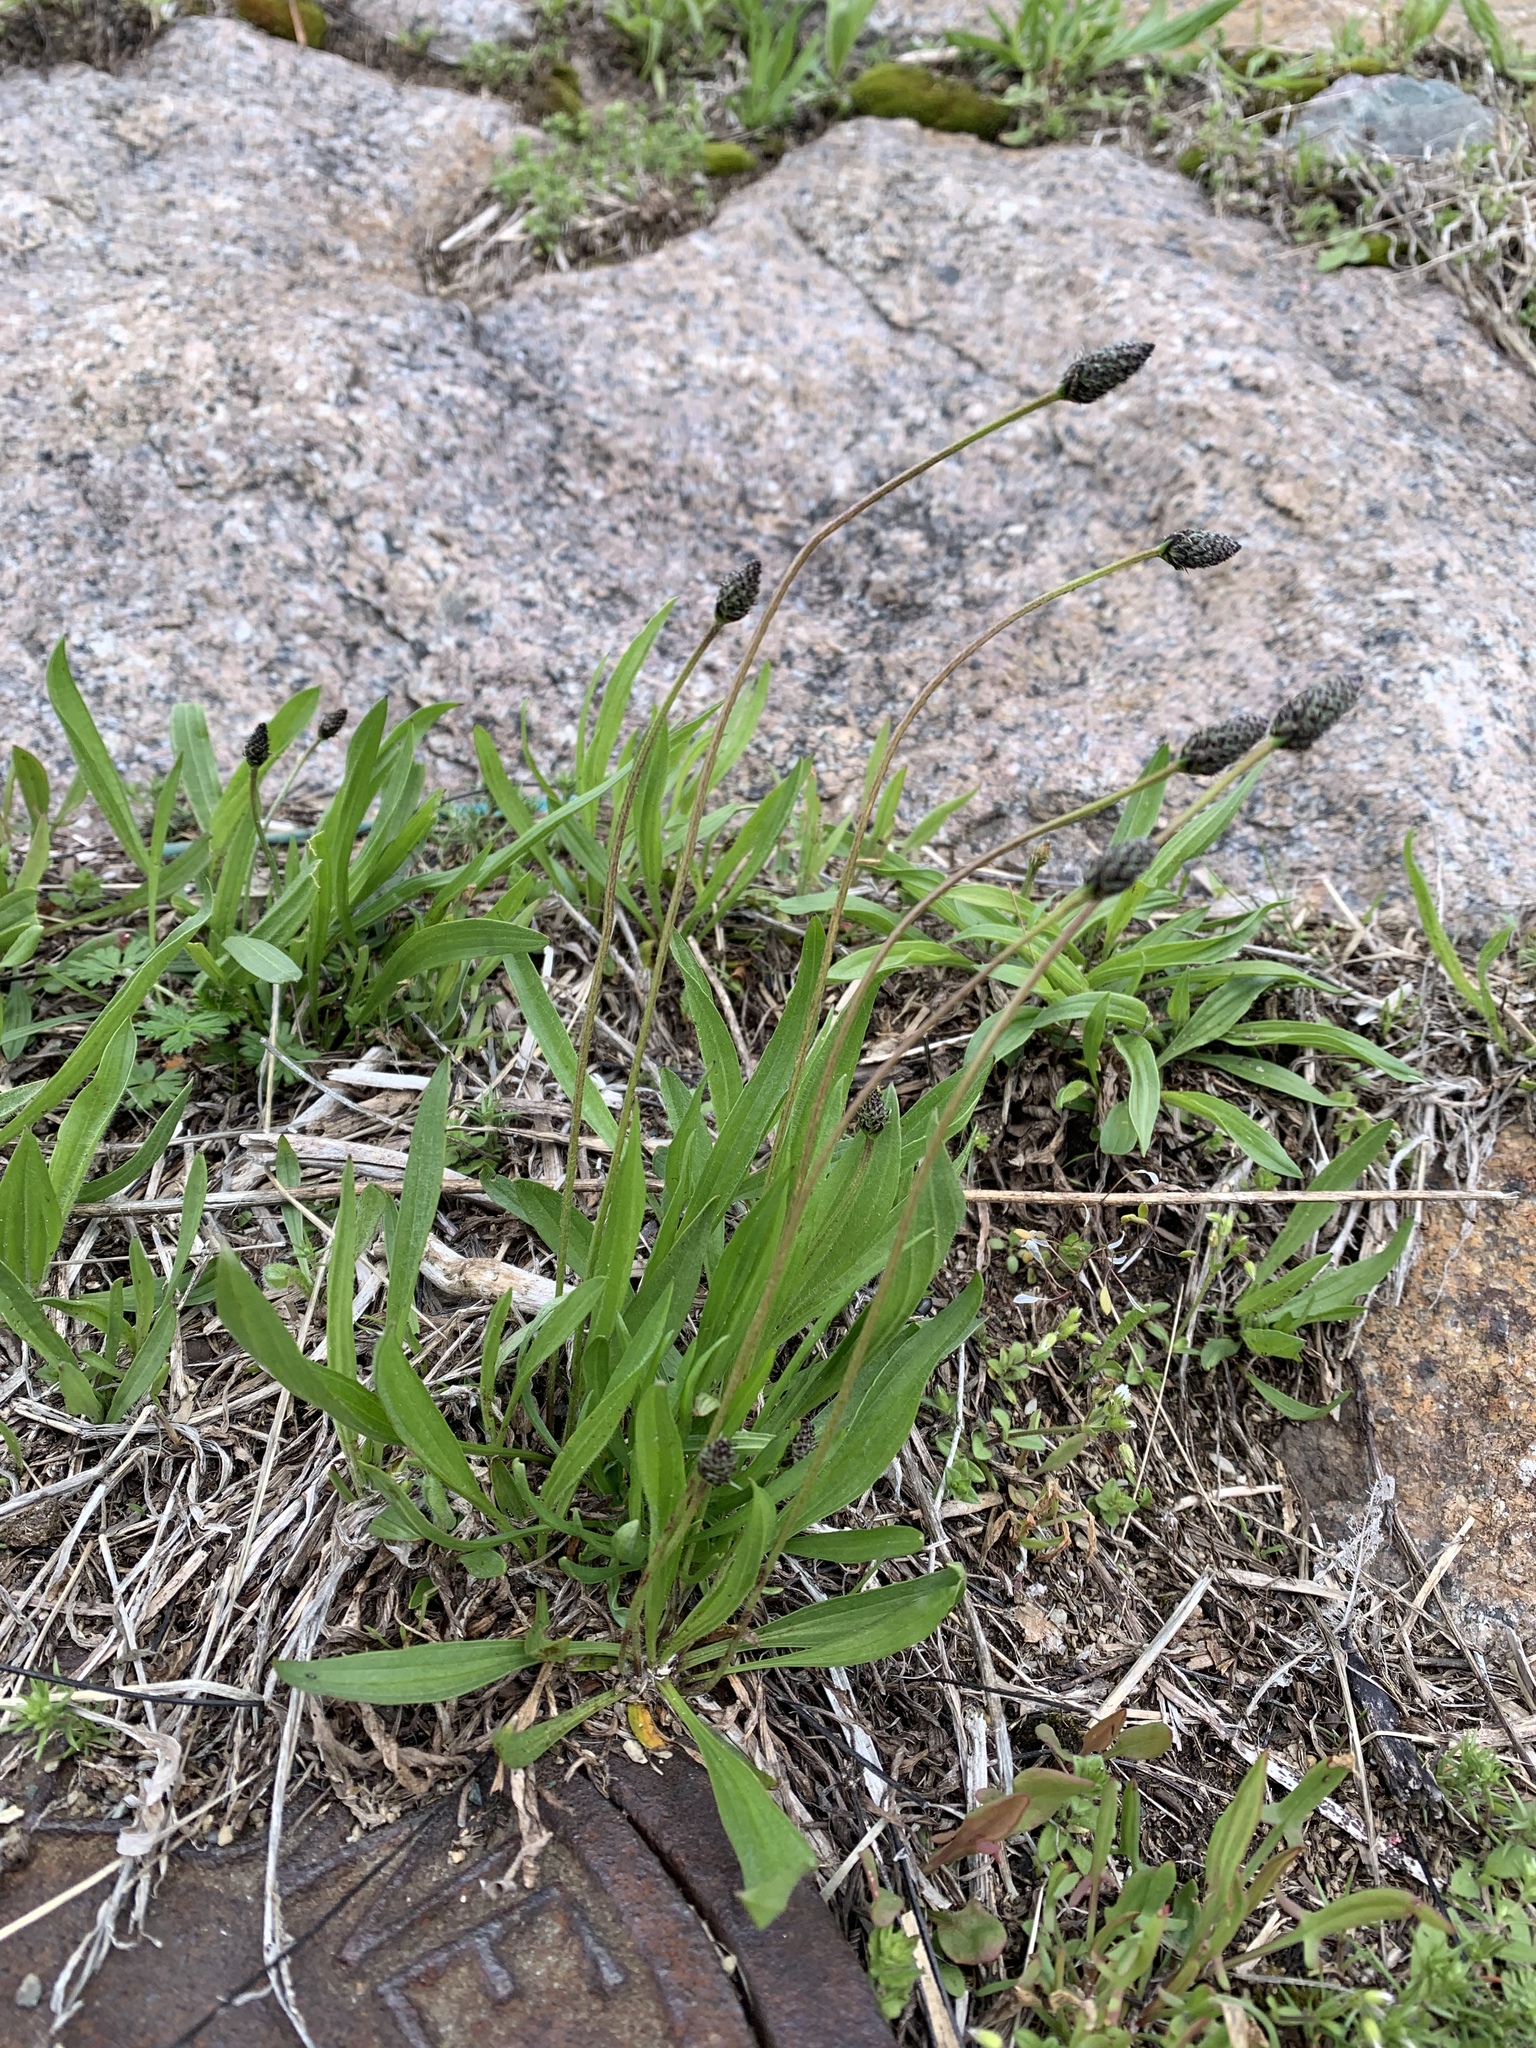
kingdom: Plantae
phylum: Tracheophyta
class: Magnoliopsida
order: Lamiales
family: Plantaginaceae
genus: Plantago
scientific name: Plantago lanceolata
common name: Ribwort plantain
